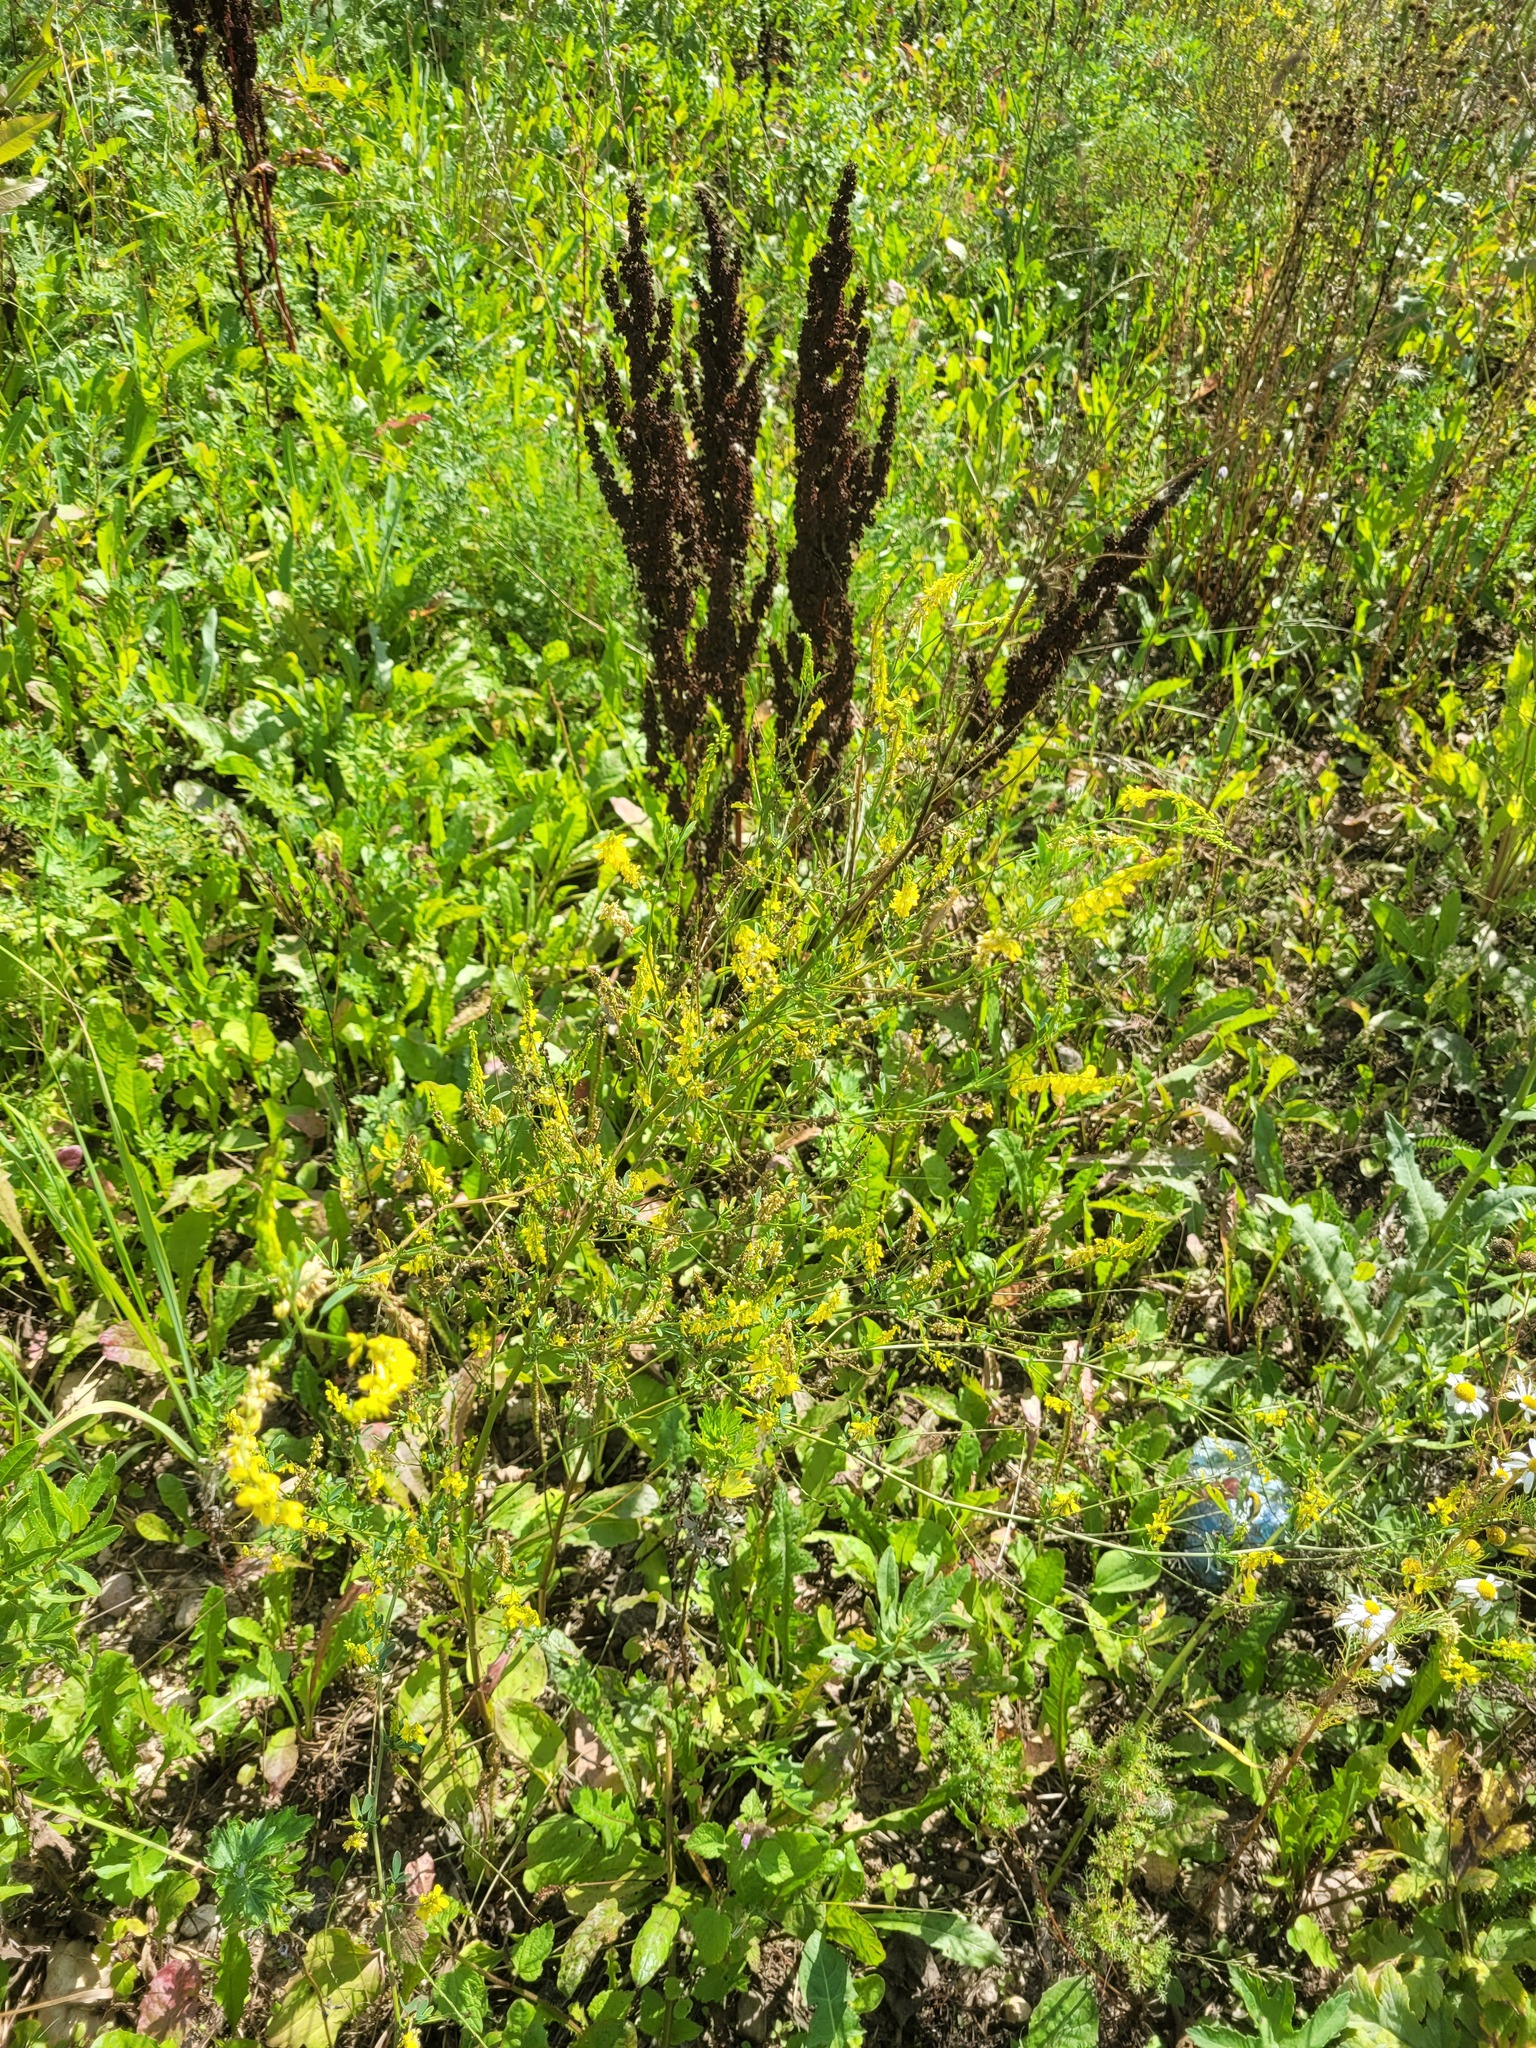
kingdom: Plantae
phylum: Tracheophyta
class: Magnoliopsida
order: Fabales
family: Fabaceae
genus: Melilotus
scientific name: Melilotus officinalis
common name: Sweetclover
